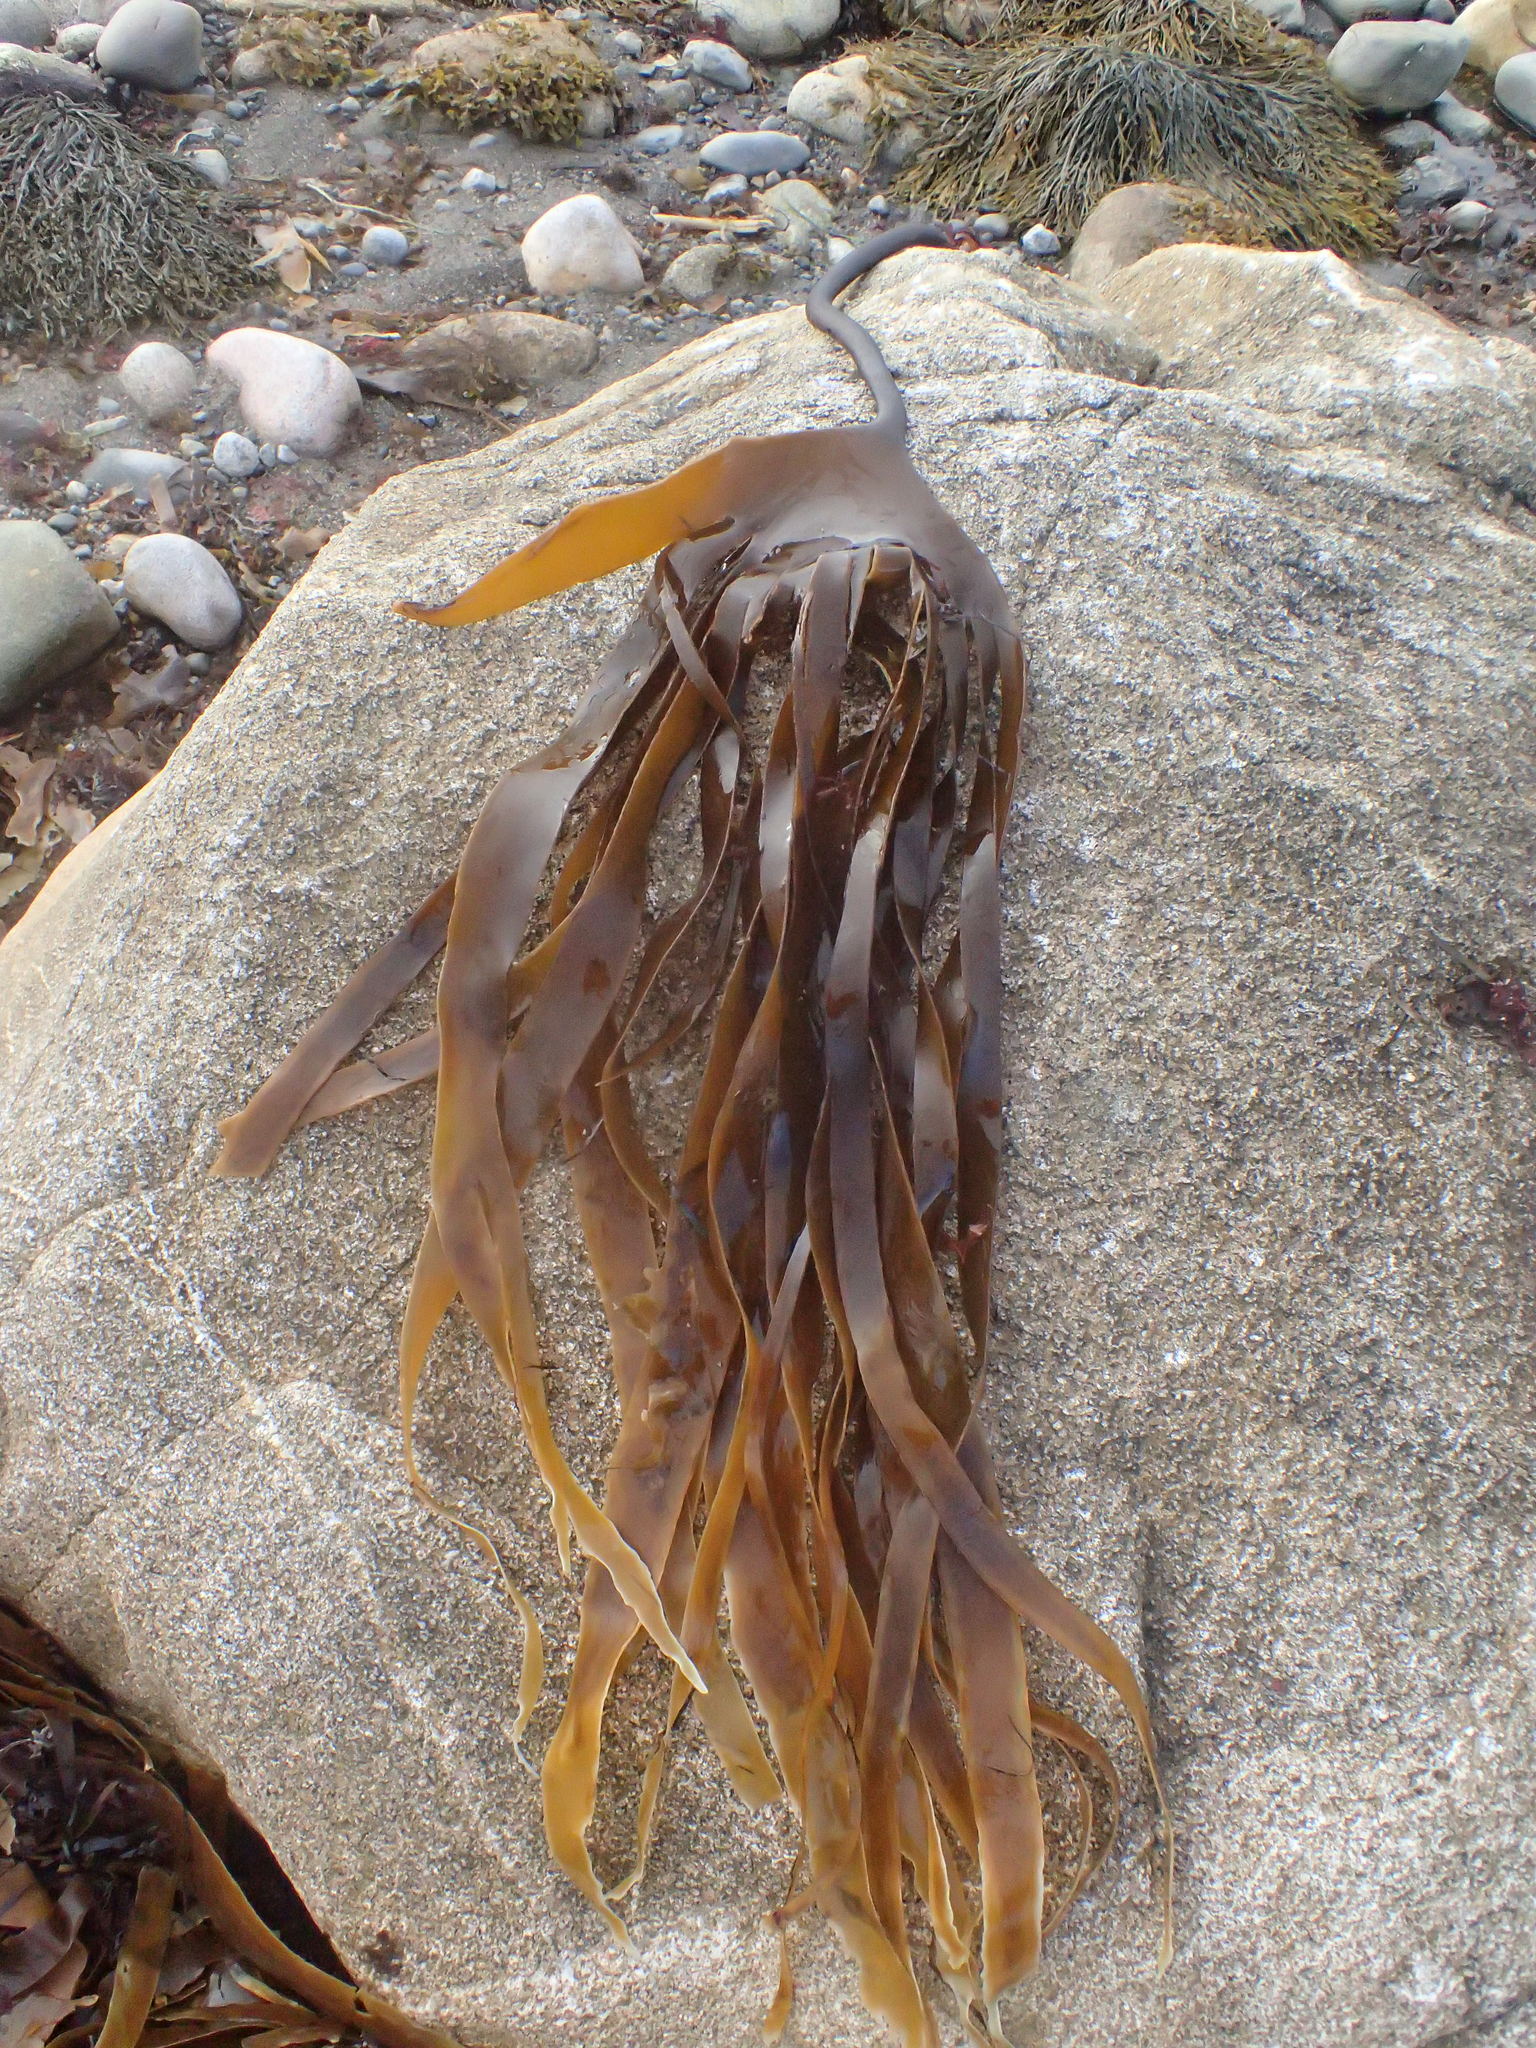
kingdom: Chromista
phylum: Ochrophyta
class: Phaeophyceae
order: Laminariales
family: Laminariaceae
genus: Laminaria
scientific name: Laminaria digitata
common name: Oarweed
